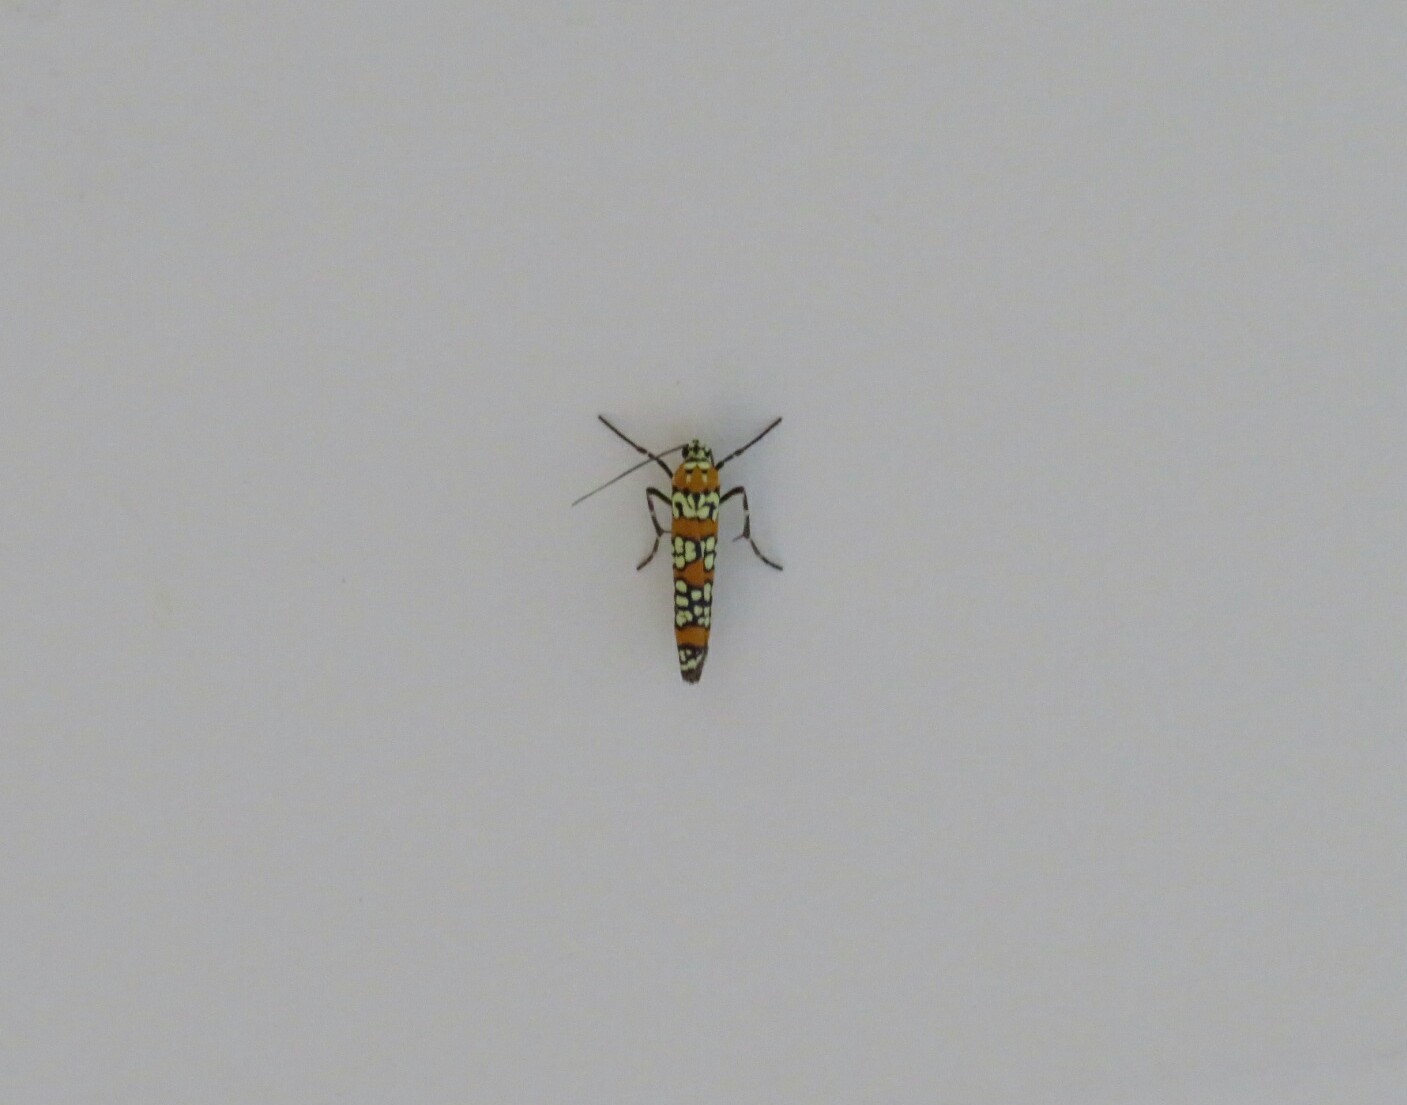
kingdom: Animalia
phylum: Arthropoda
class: Insecta
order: Lepidoptera
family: Attevidae
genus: Atteva
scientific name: Atteva punctella
